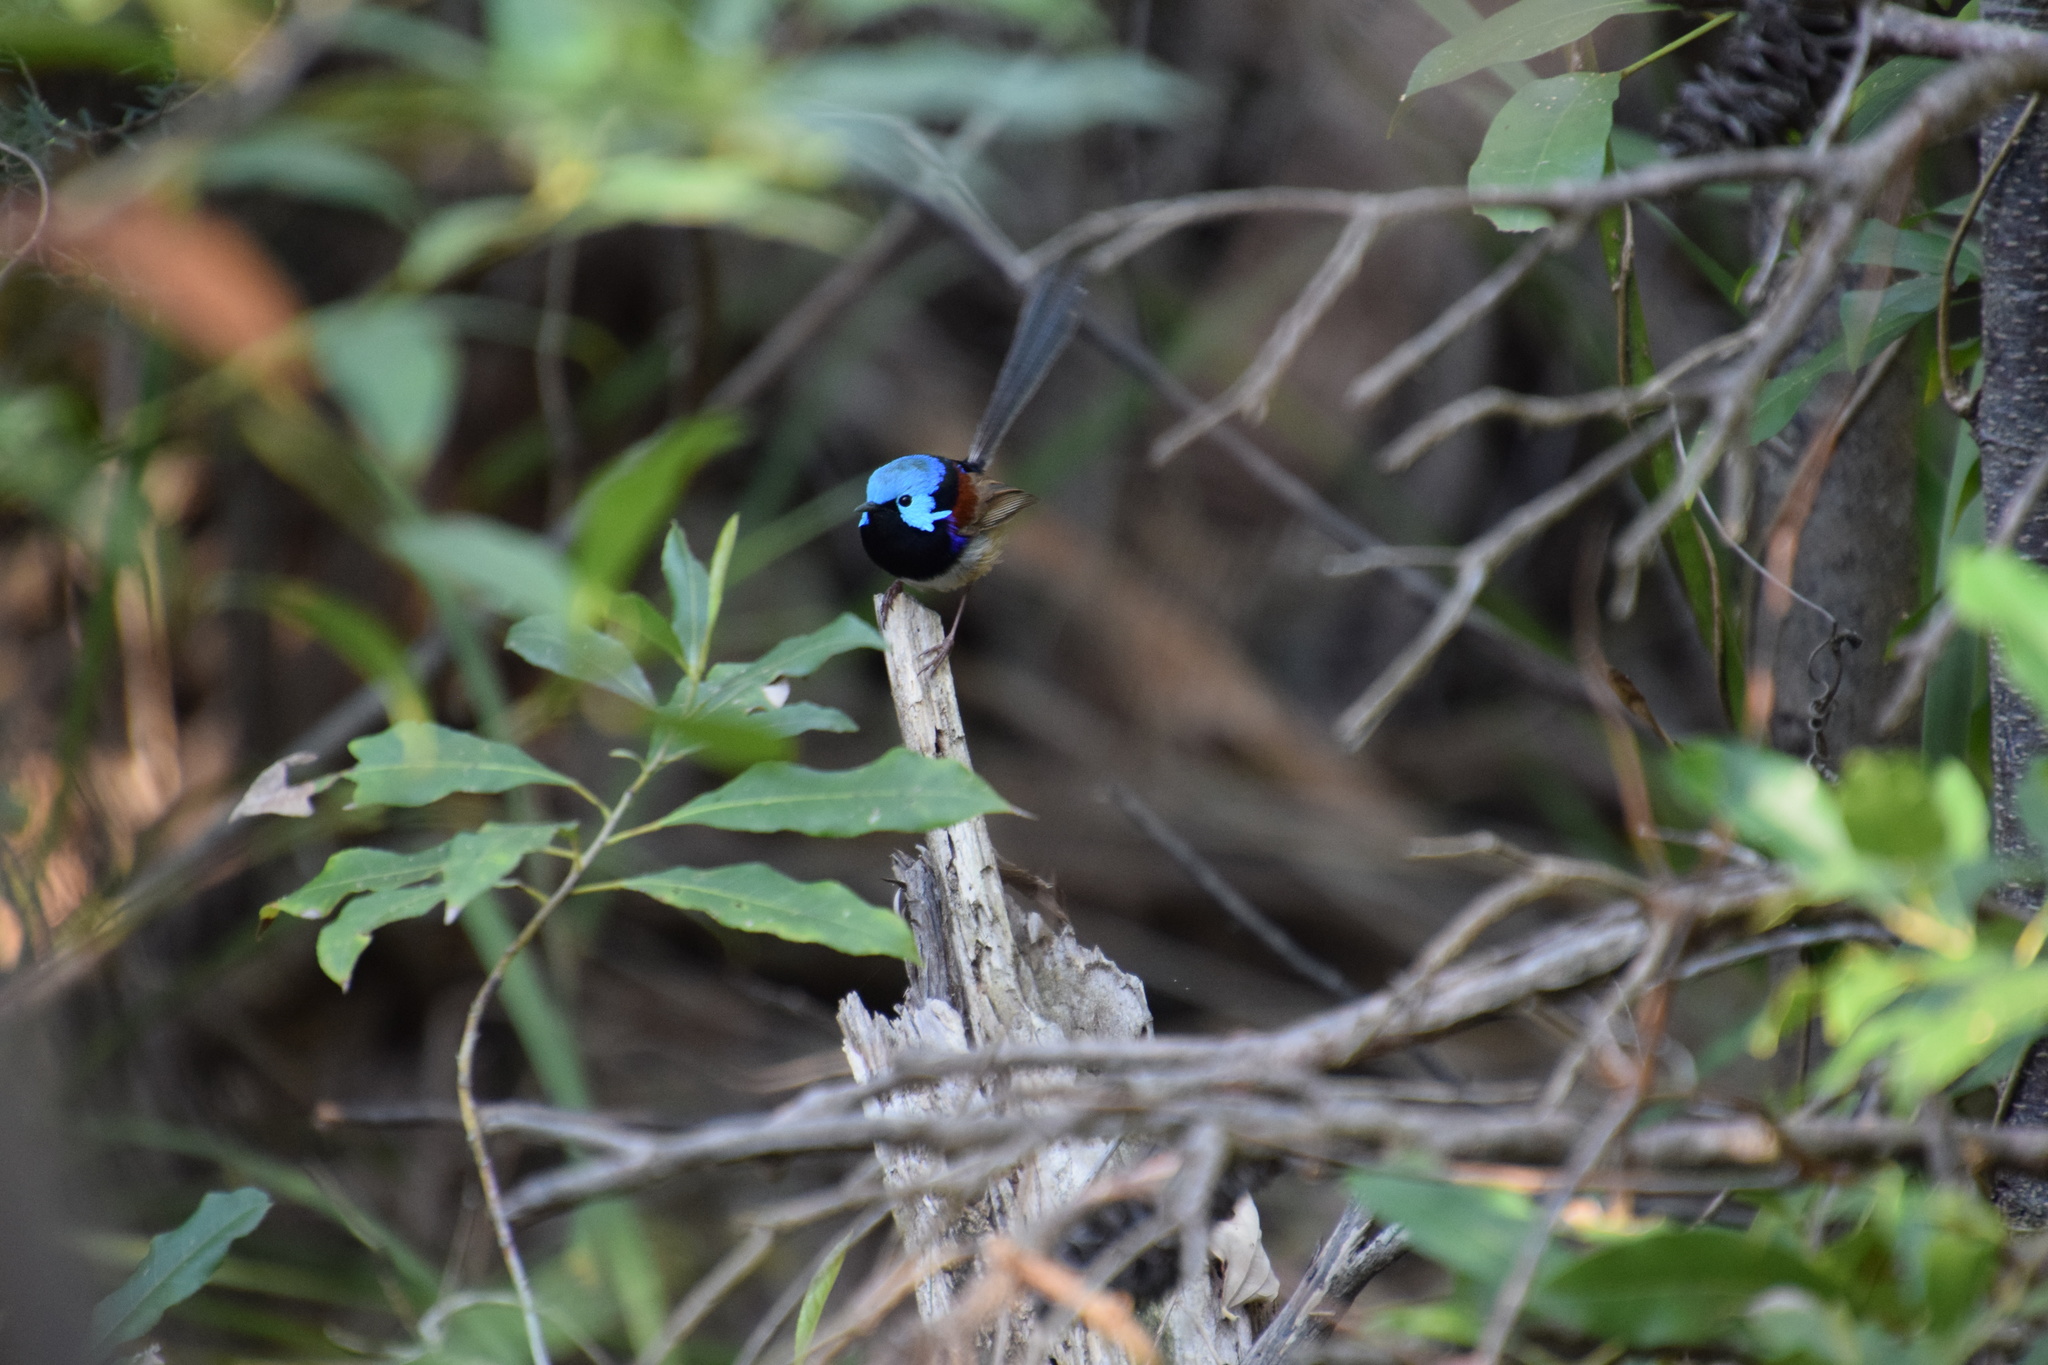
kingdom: Animalia
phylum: Chordata
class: Aves
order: Passeriformes
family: Maluridae
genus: Malurus
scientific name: Malurus lamberti
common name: Variegated fairywren
